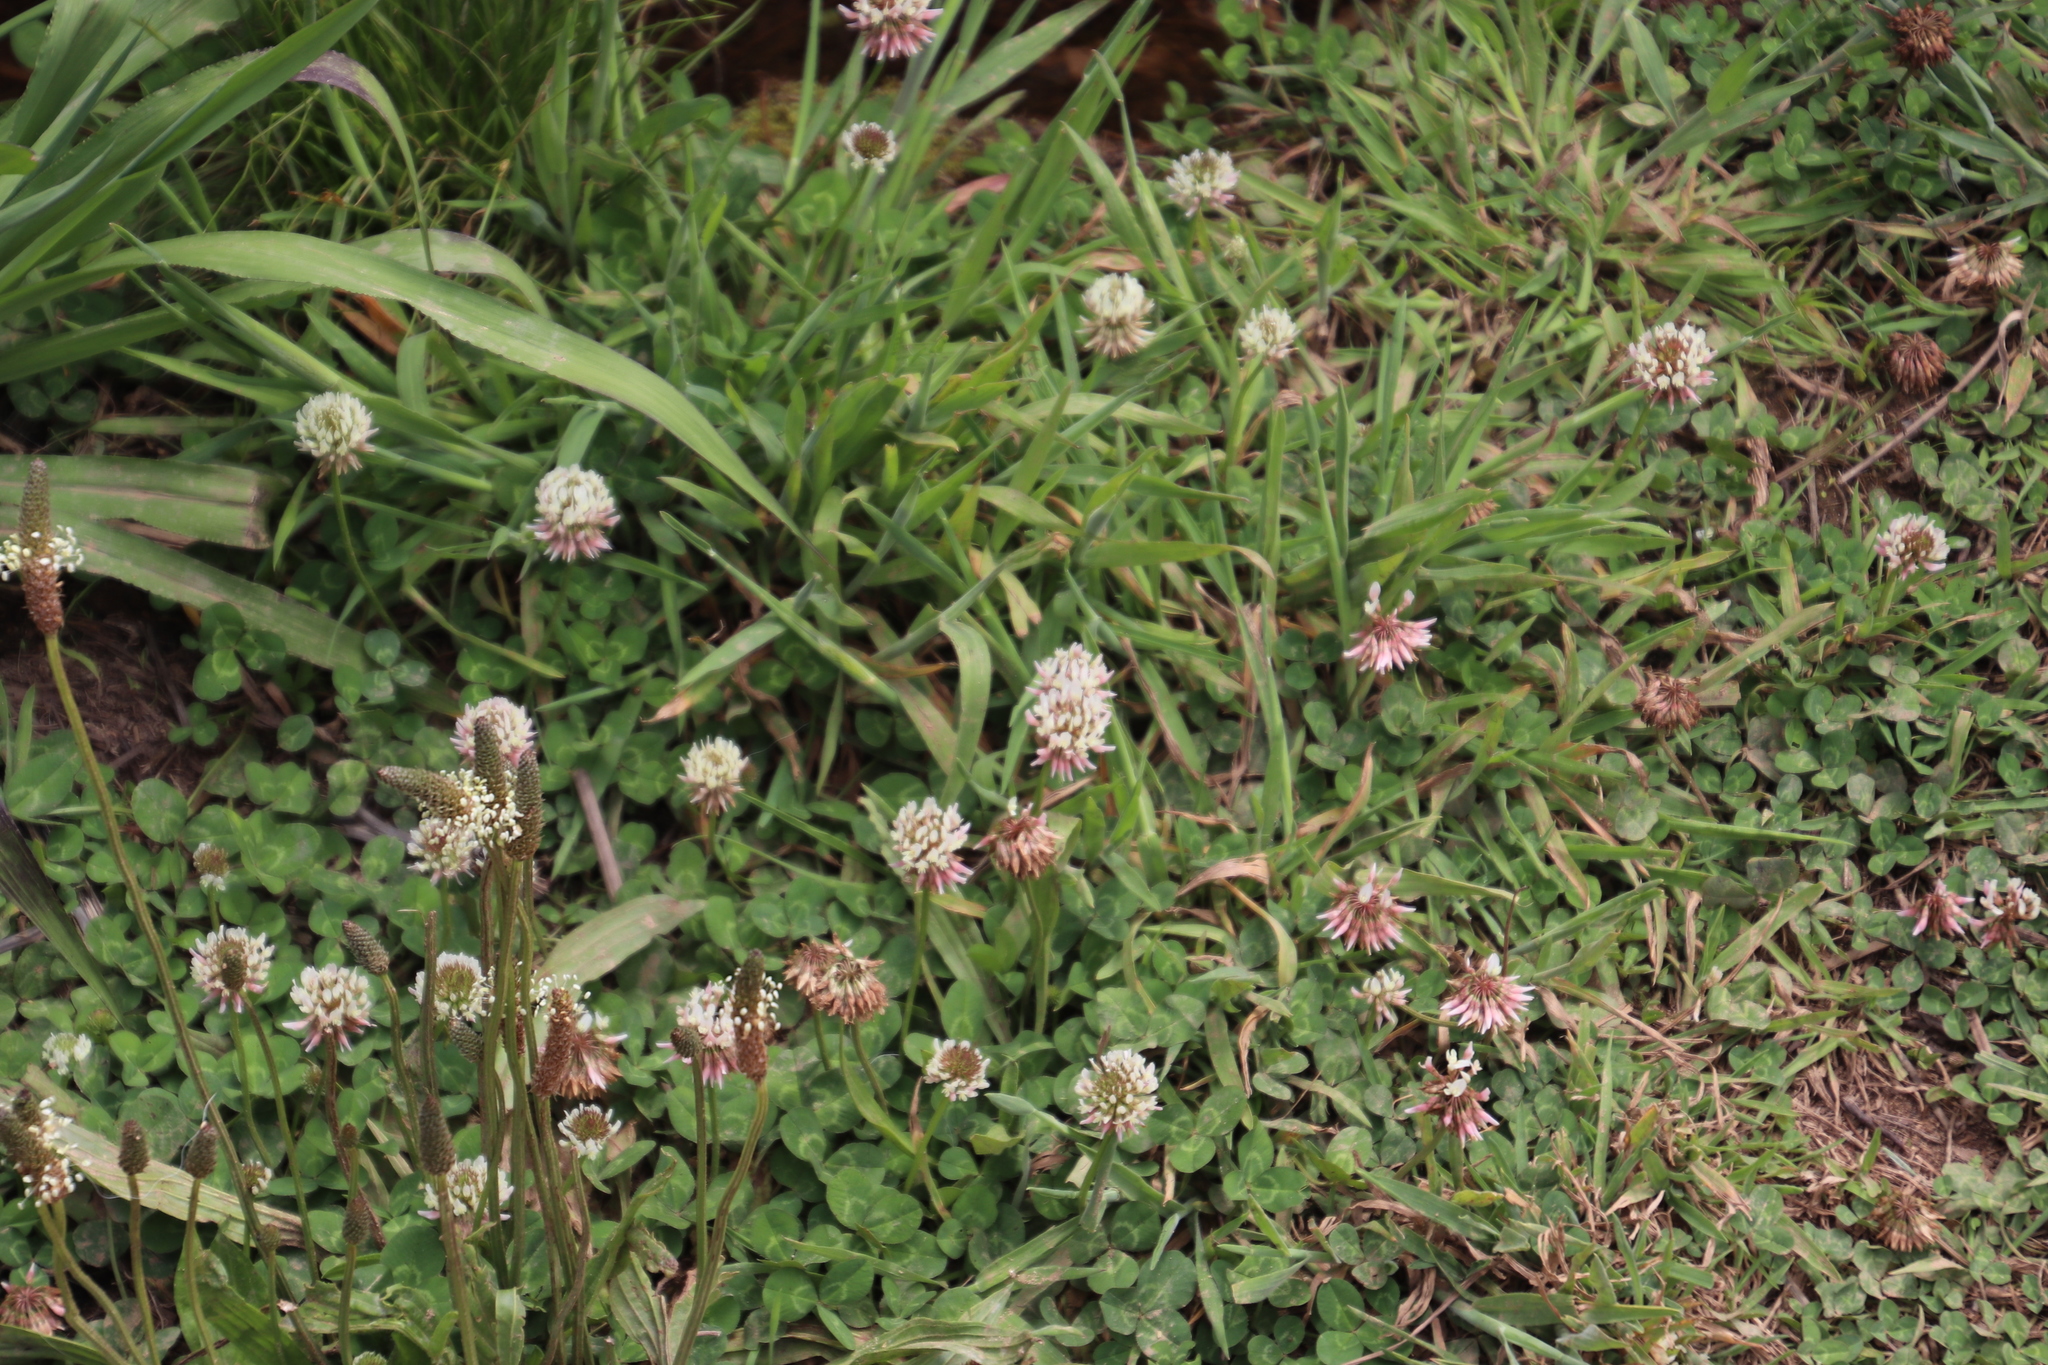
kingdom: Plantae
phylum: Tracheophyta
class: Magnoliopsida
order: Fabales
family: Fabaceae
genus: Trifolium
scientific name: Trifolium repens
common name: White clover
